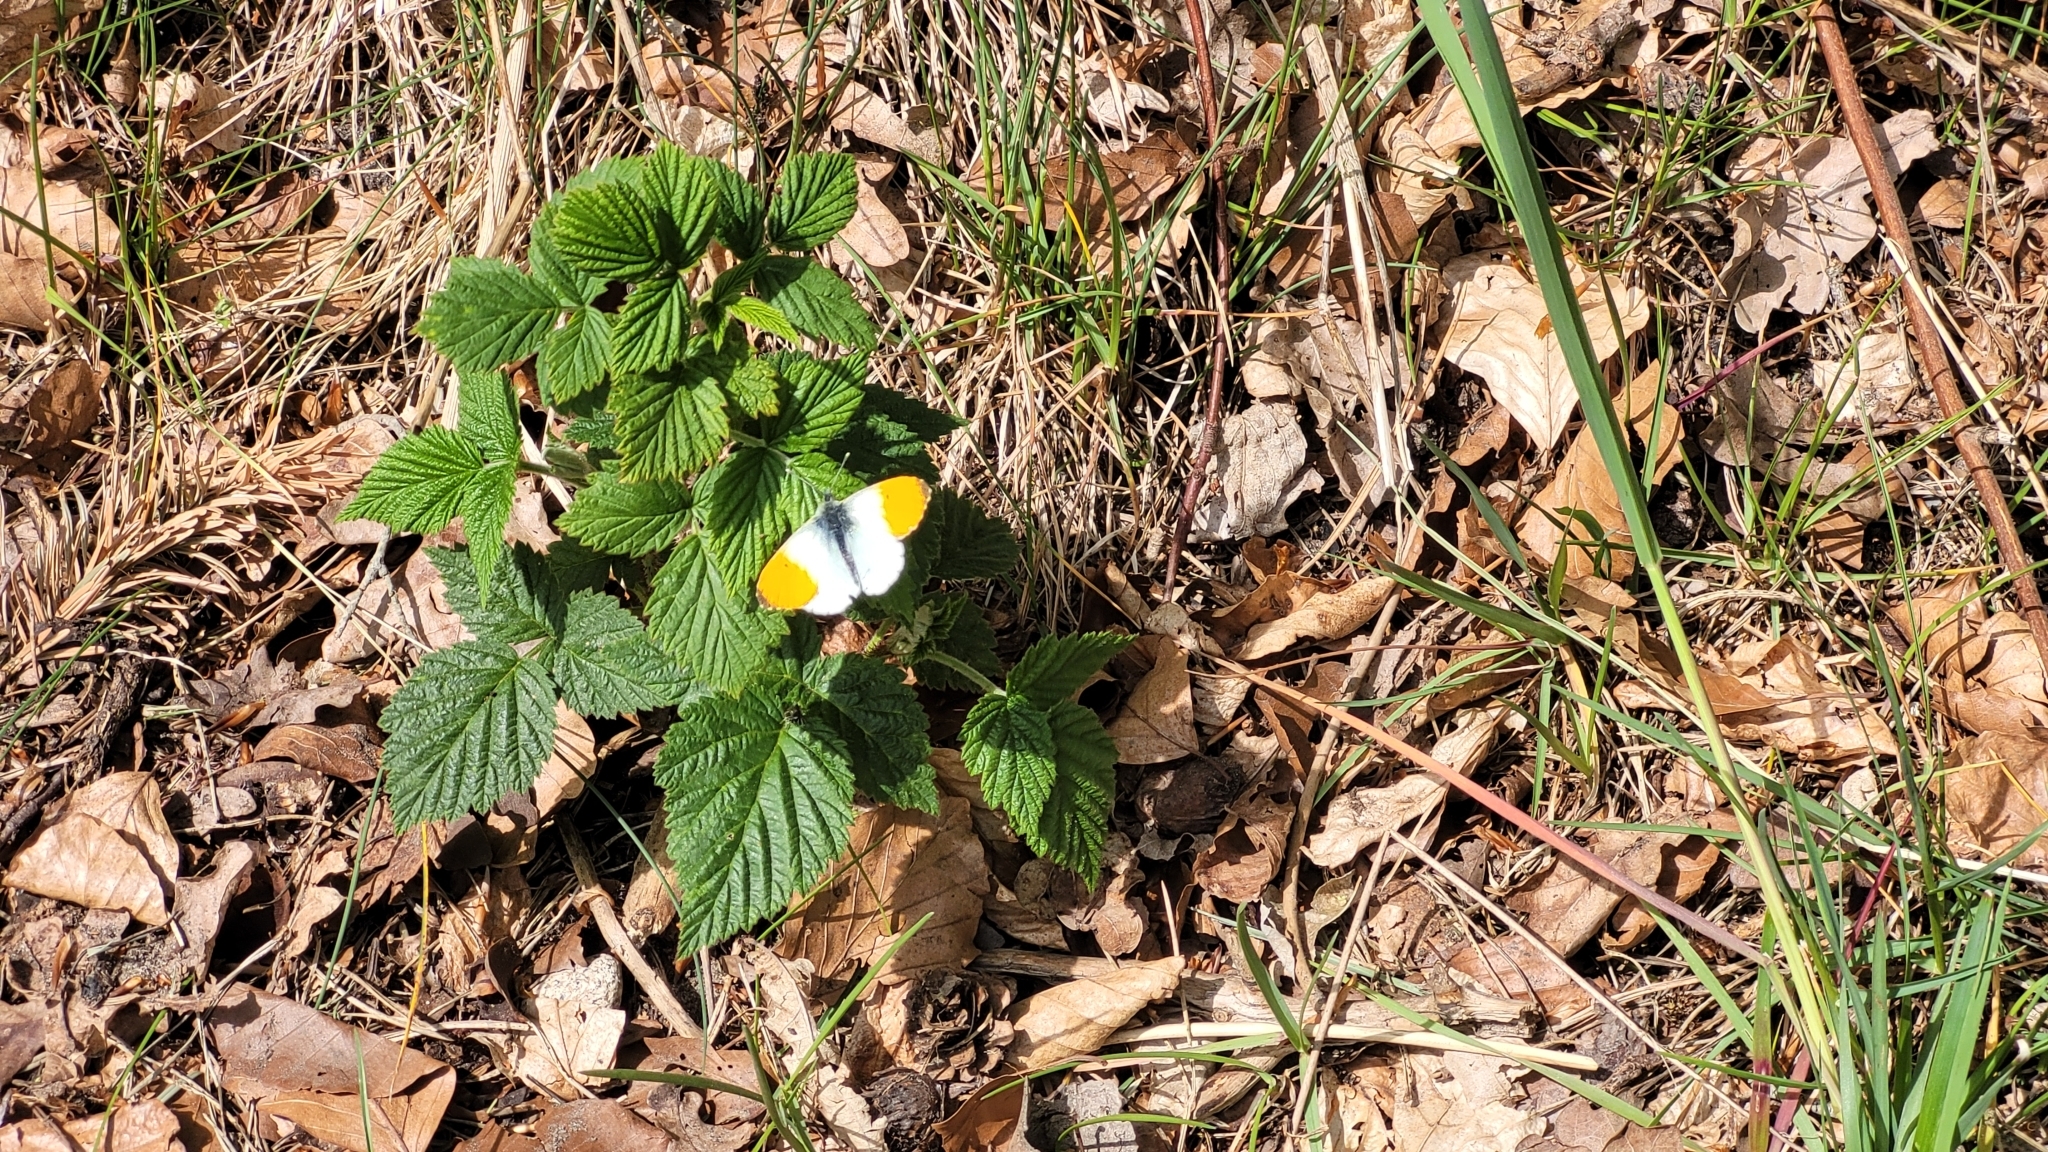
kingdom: Animalia
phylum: Arthropoda
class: Insecta
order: Lepidoptera
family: Pieridae
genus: Anthocharis
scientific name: Anthocharis cardamines
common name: Orange-tip
